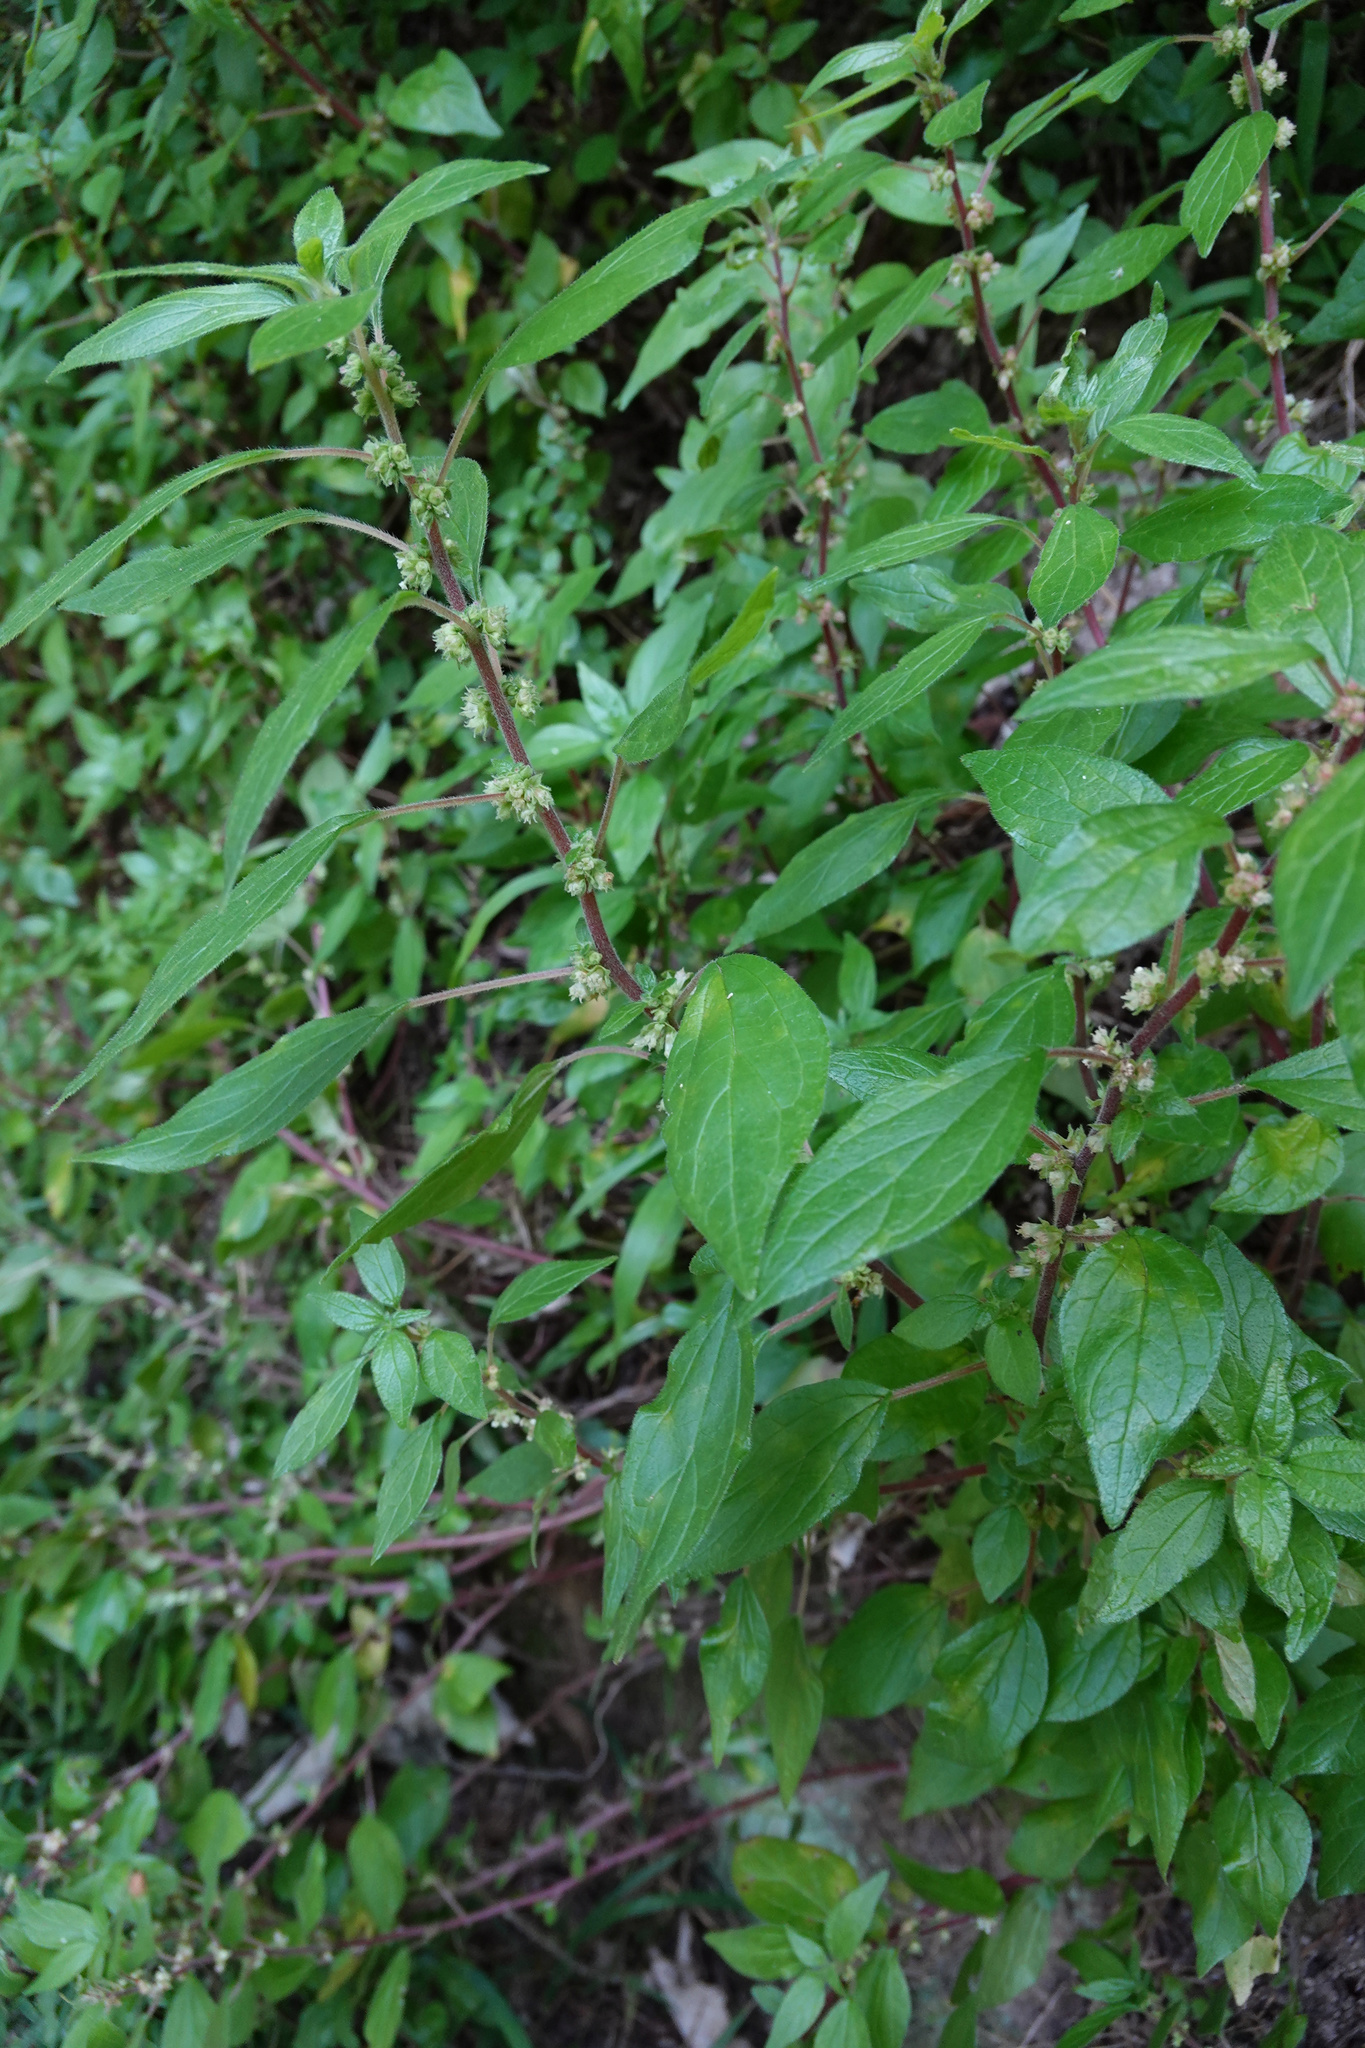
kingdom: Plantae
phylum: Tracheophyta
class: Magnoliopsida
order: Rosales
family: Urticaceae
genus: Parietaria
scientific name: Parietaria officinalis
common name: Eastern pellitory-of-the-wall
